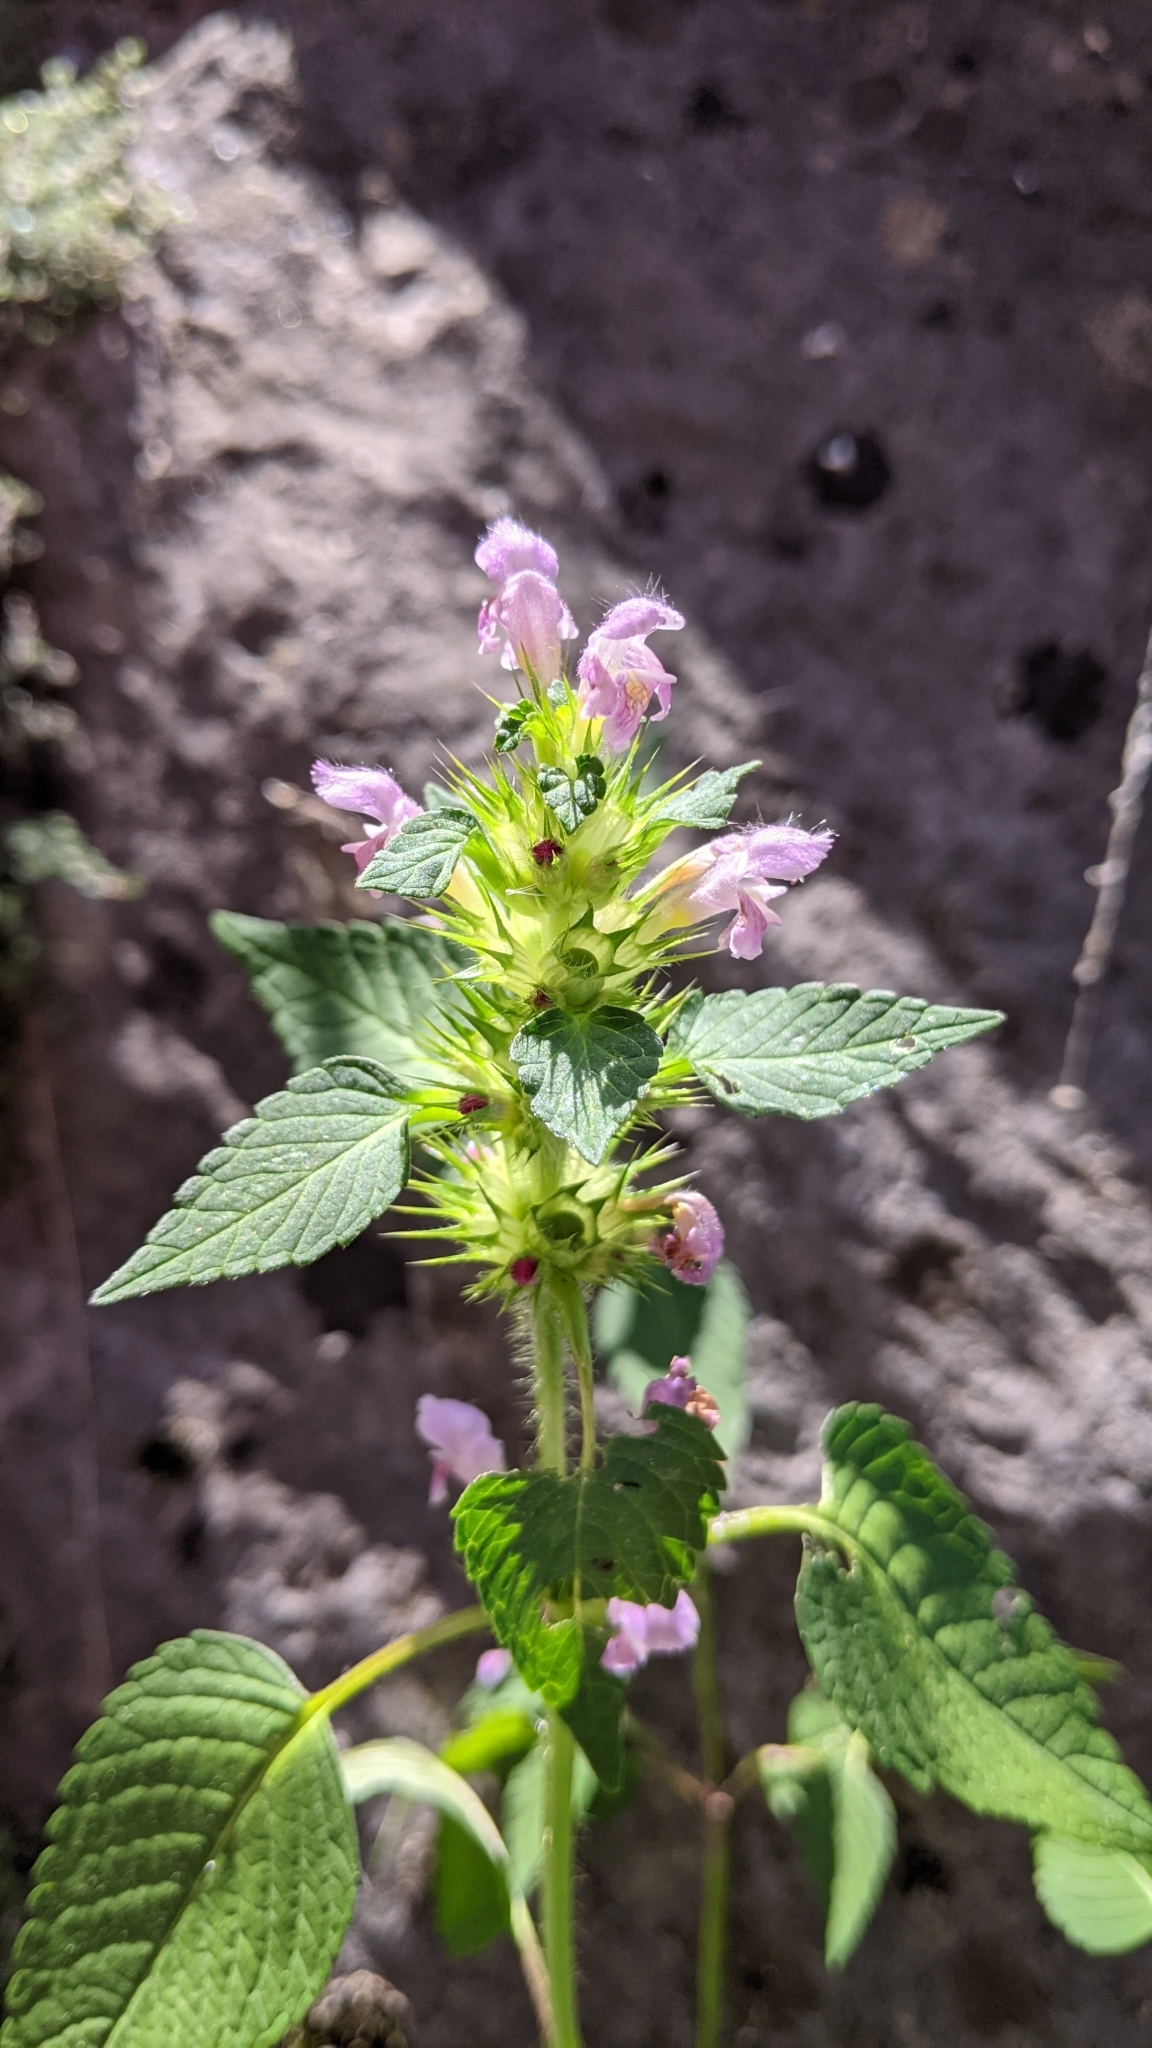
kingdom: Plantae
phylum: Tracheophyta
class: Magnoliopsida
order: Lamiales
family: Lamiaceae
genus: Galeopsis
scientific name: Galeopsis tetrahit
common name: Common hemp-nettle
